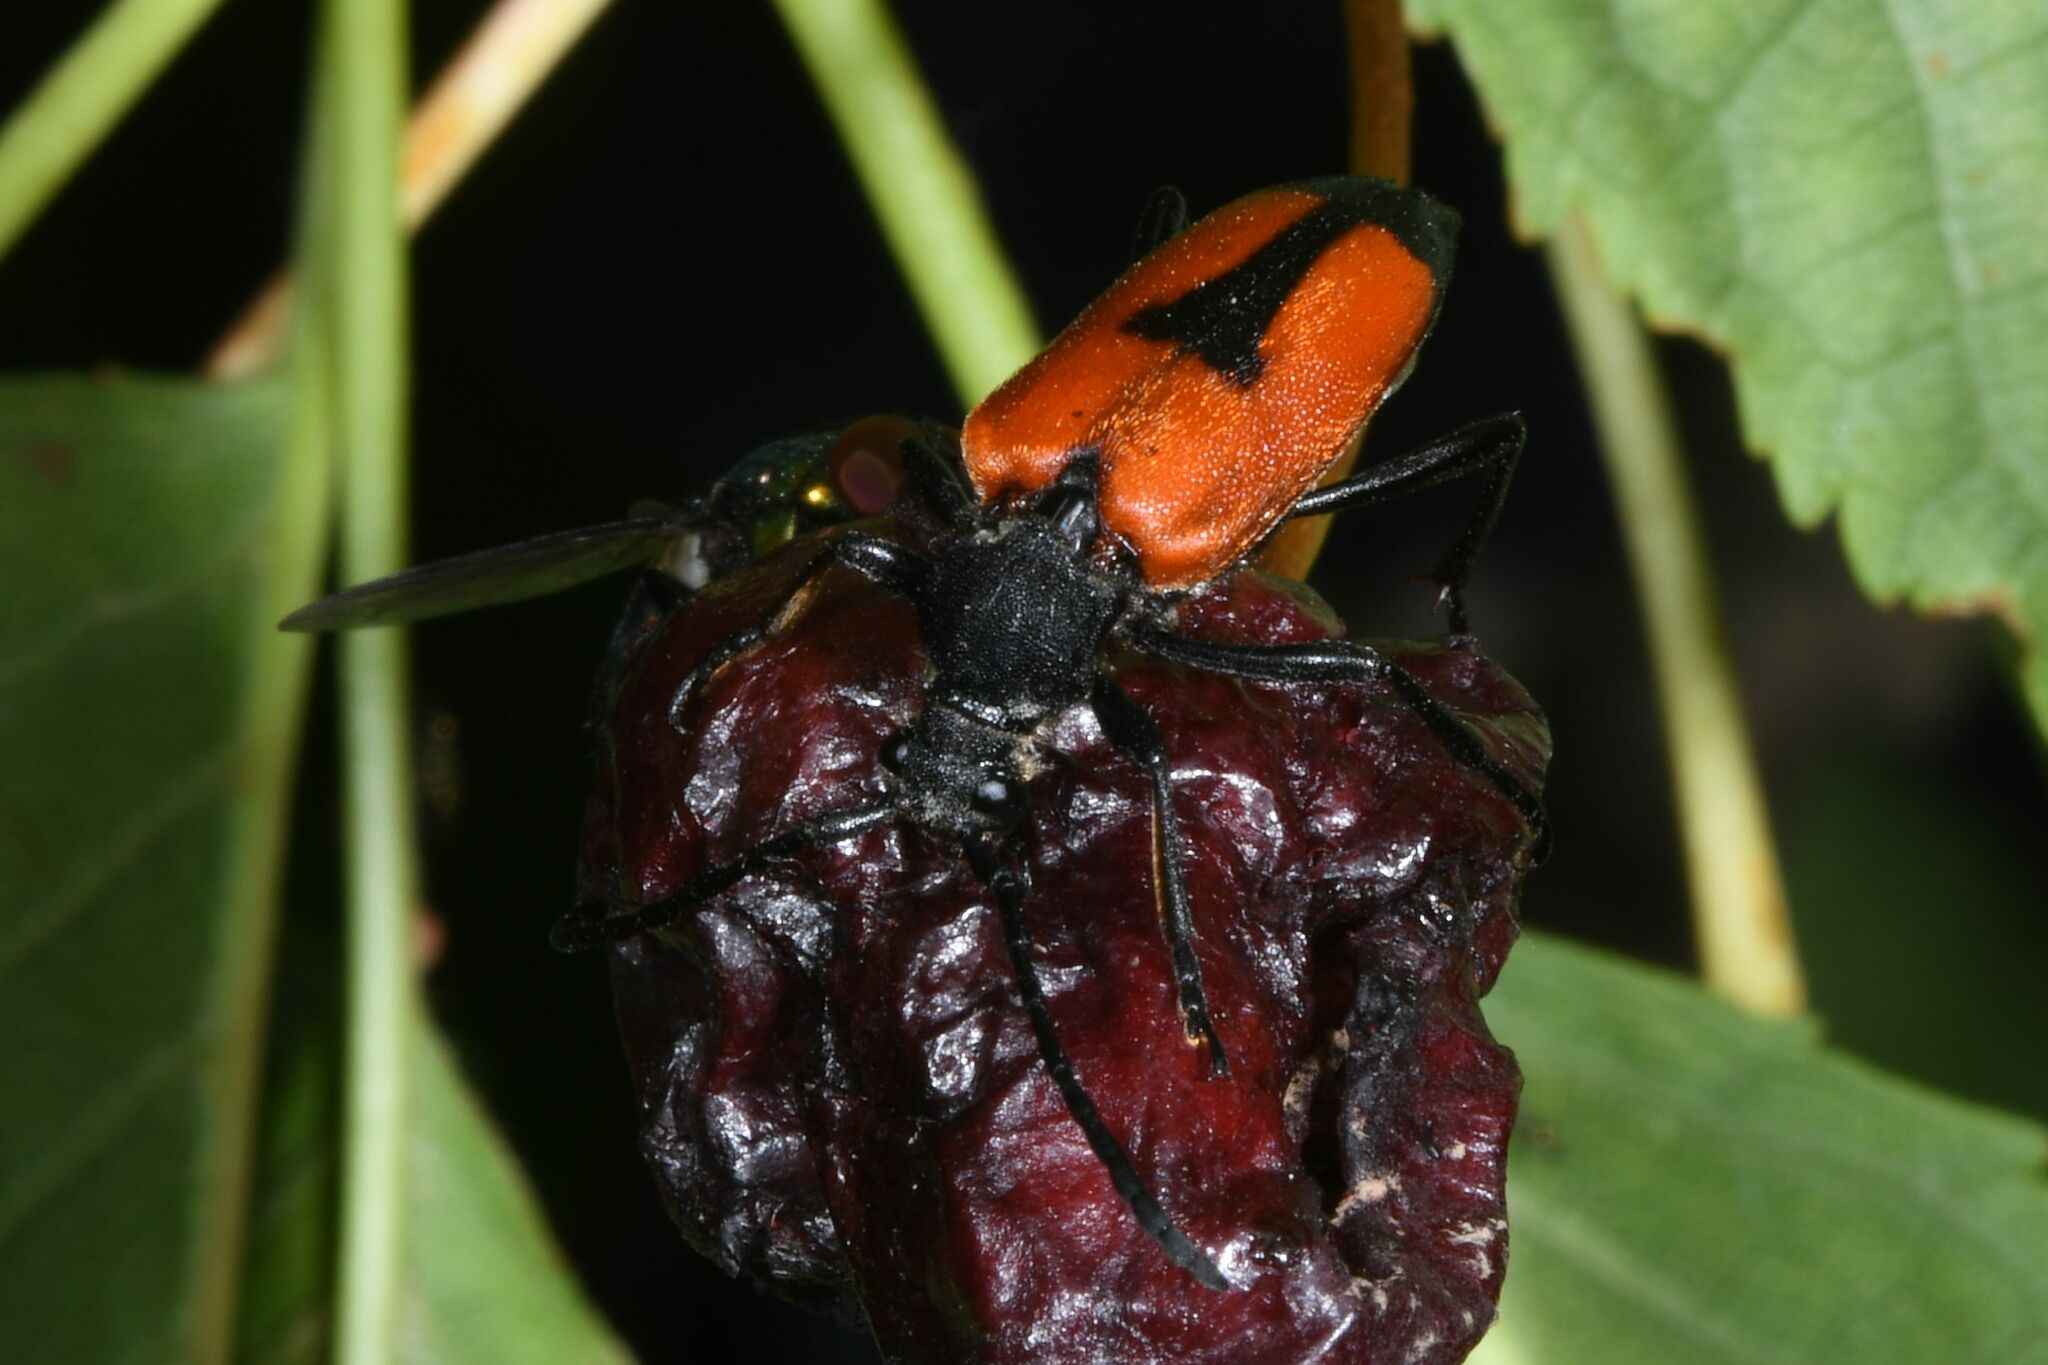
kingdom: Animalia
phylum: Arthropoda
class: Insecta
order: Coleoptera
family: Cerambycidae
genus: Stictoleptura
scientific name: Stictoleptura cordigera
